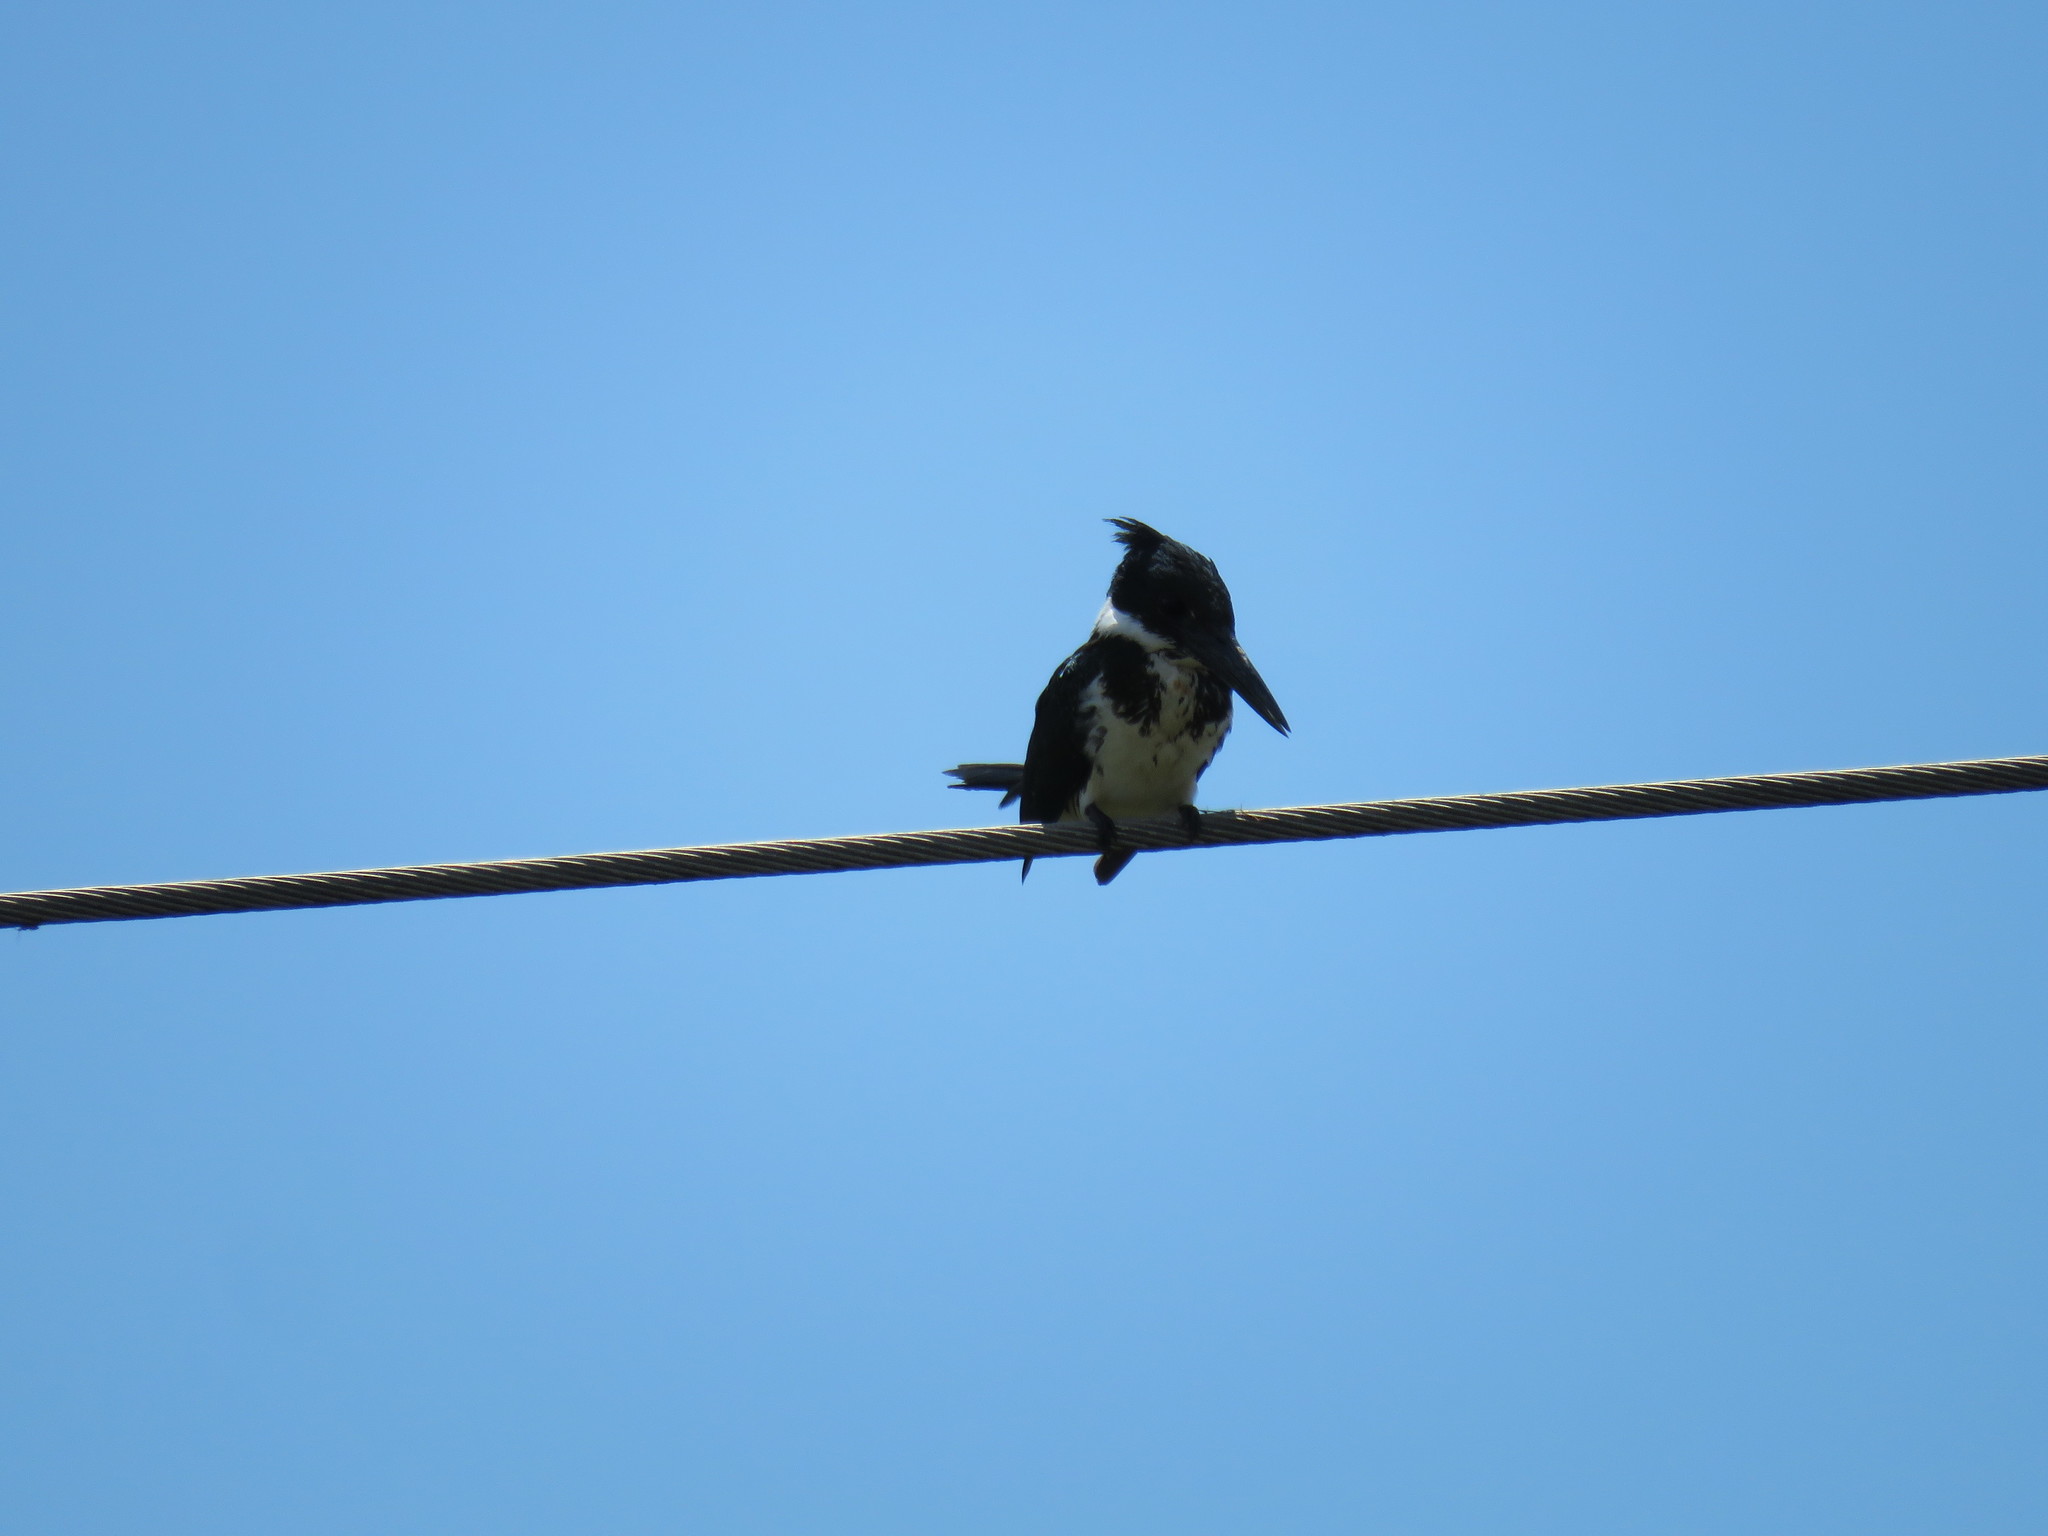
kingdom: Animalia
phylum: Chordata
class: Aves
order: Coraciiformes
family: Alcedinidae
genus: Chloroceryle
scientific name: Chloroceryle amazona
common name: Amazon kingfisher
